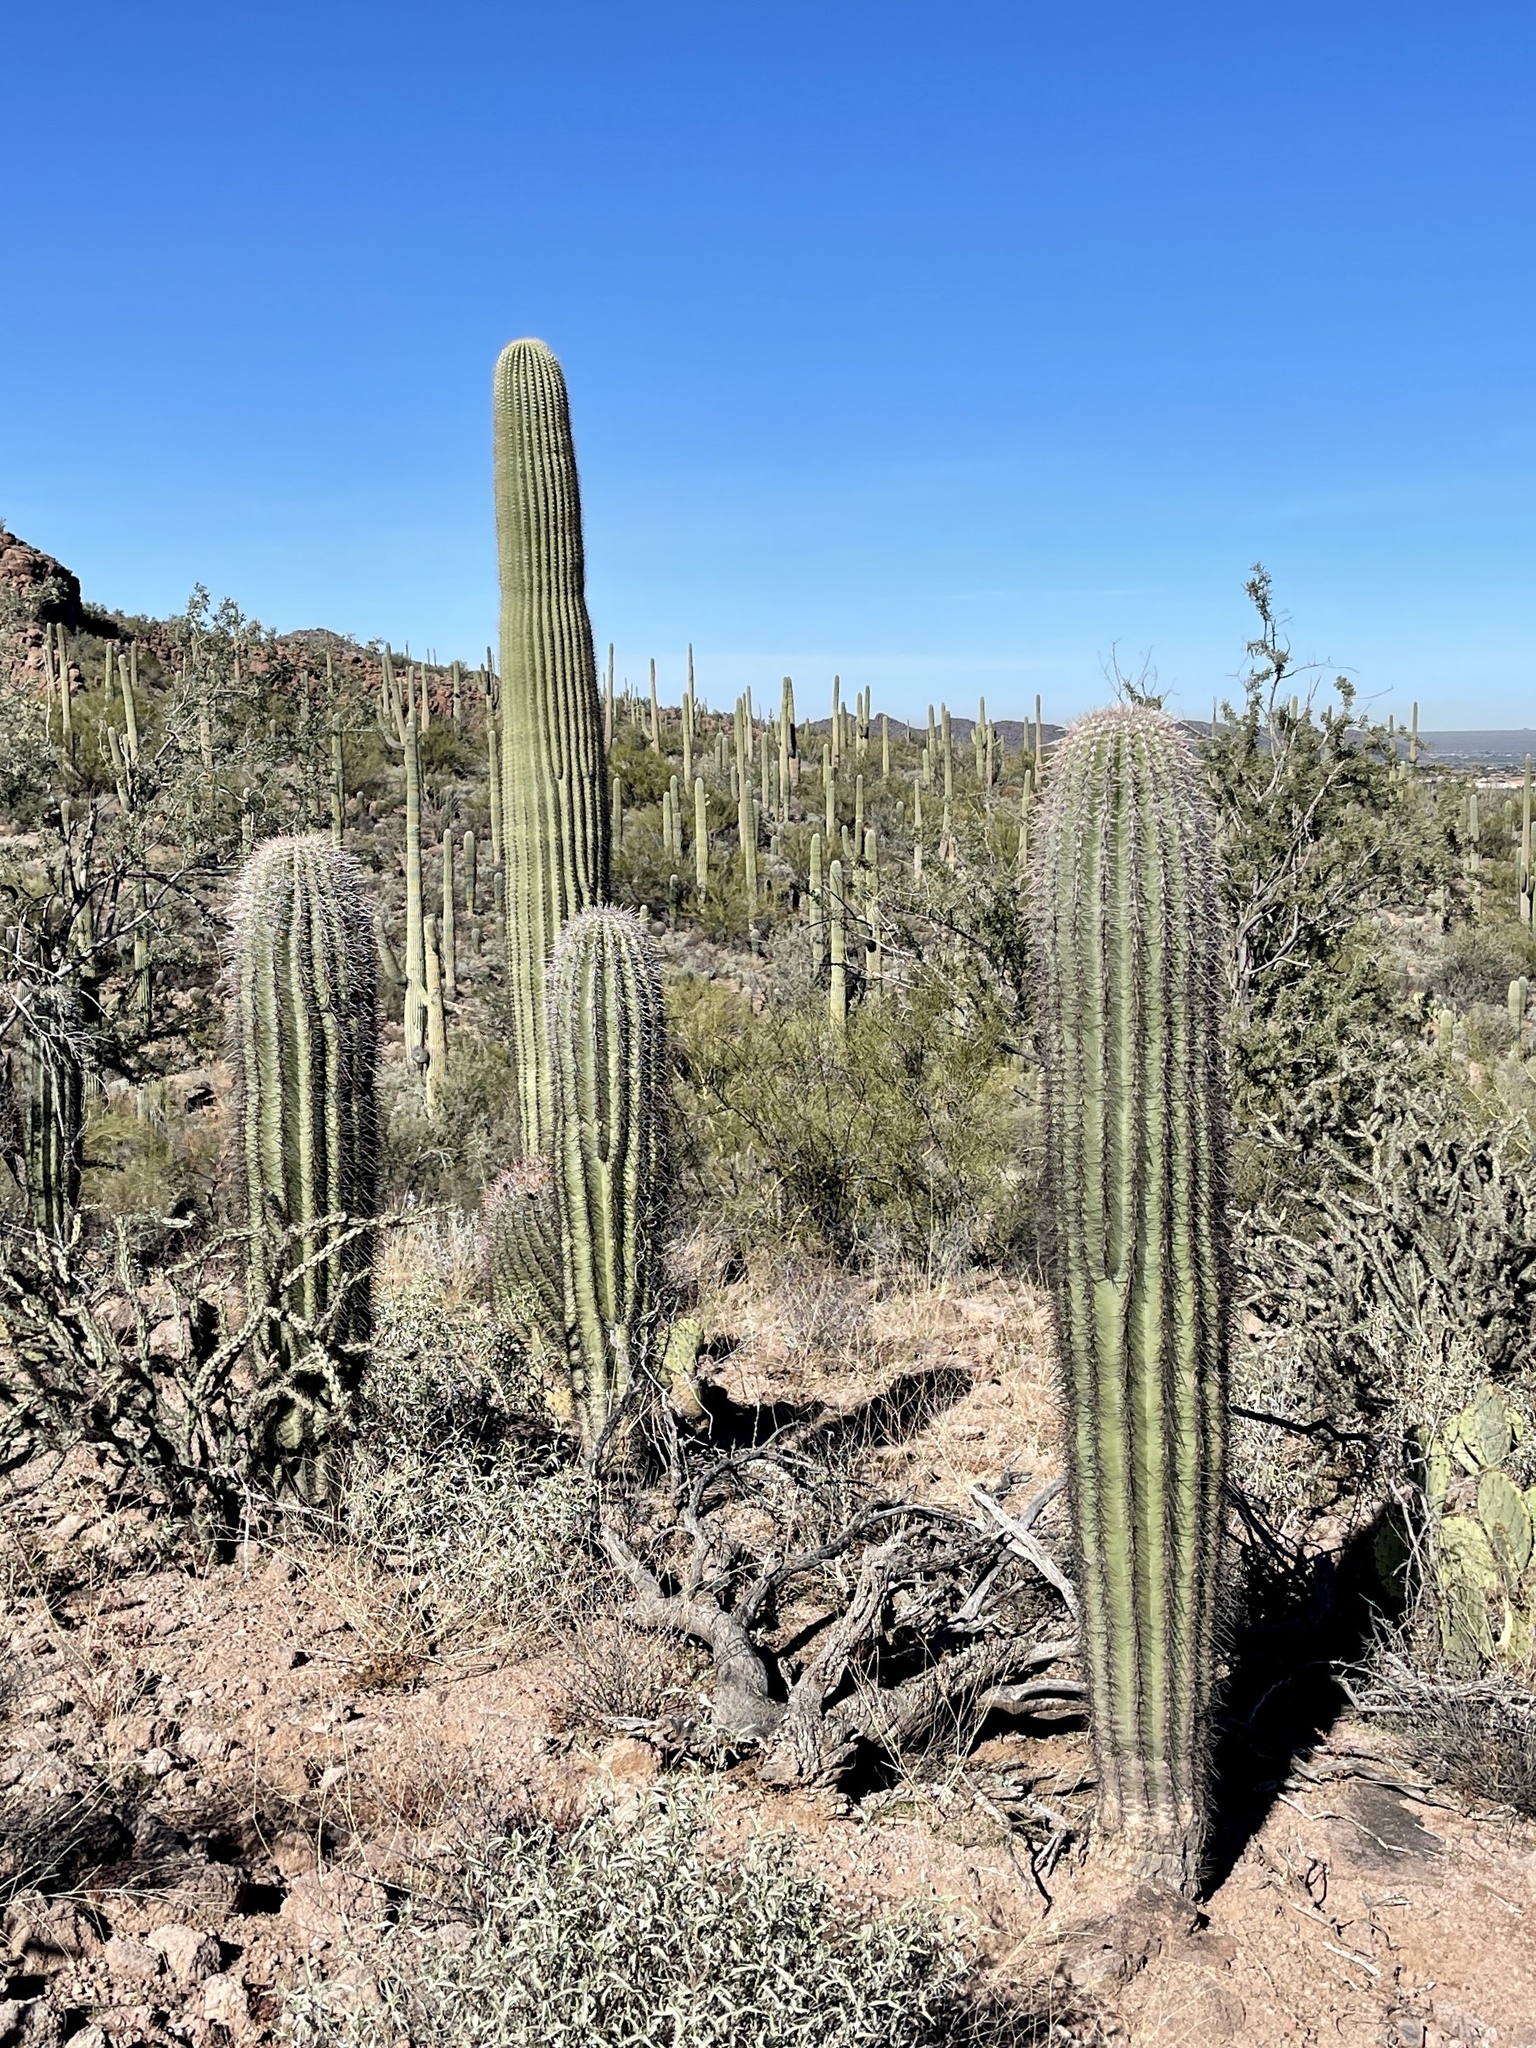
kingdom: Plantae
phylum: Tracheophyta
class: Magnoliopsida
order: Caryophyllales
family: Cactaceae
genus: Carnegiea
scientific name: Carnegiea gigantea
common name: Saguaro
